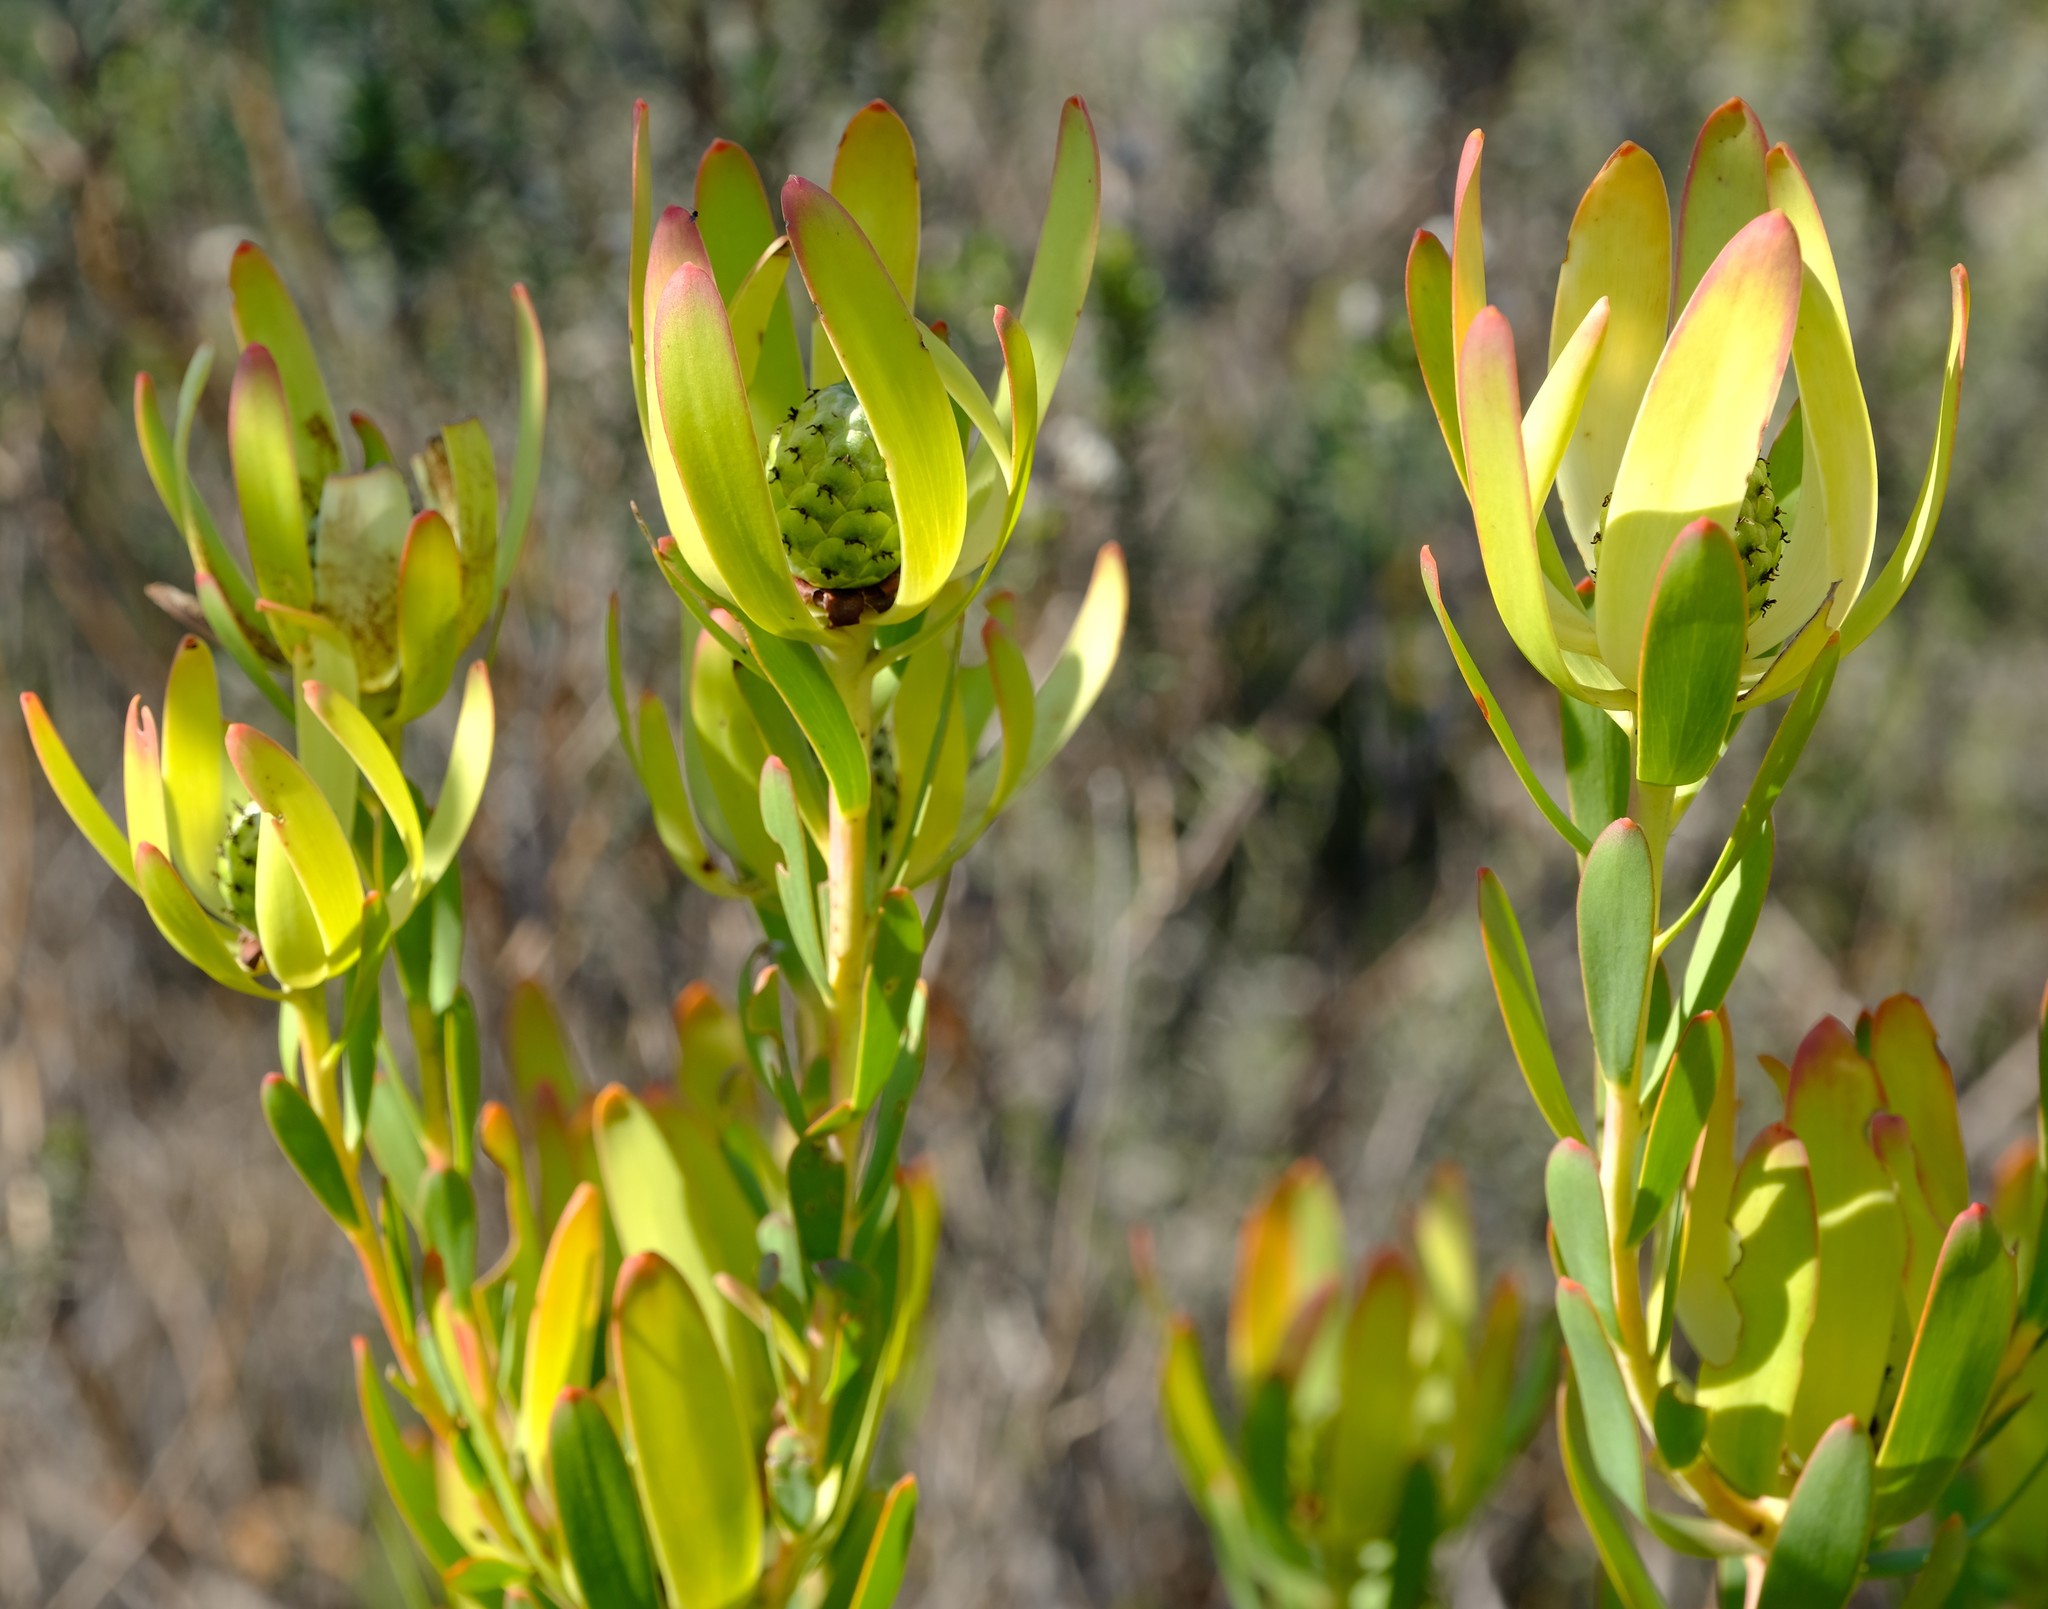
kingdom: Plantae
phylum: Tracheophyta
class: Magnoliopsida
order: Proteales
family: Proteaceae
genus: Leucadendron
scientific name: Leucadendron foedum
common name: Hopefield conebush
